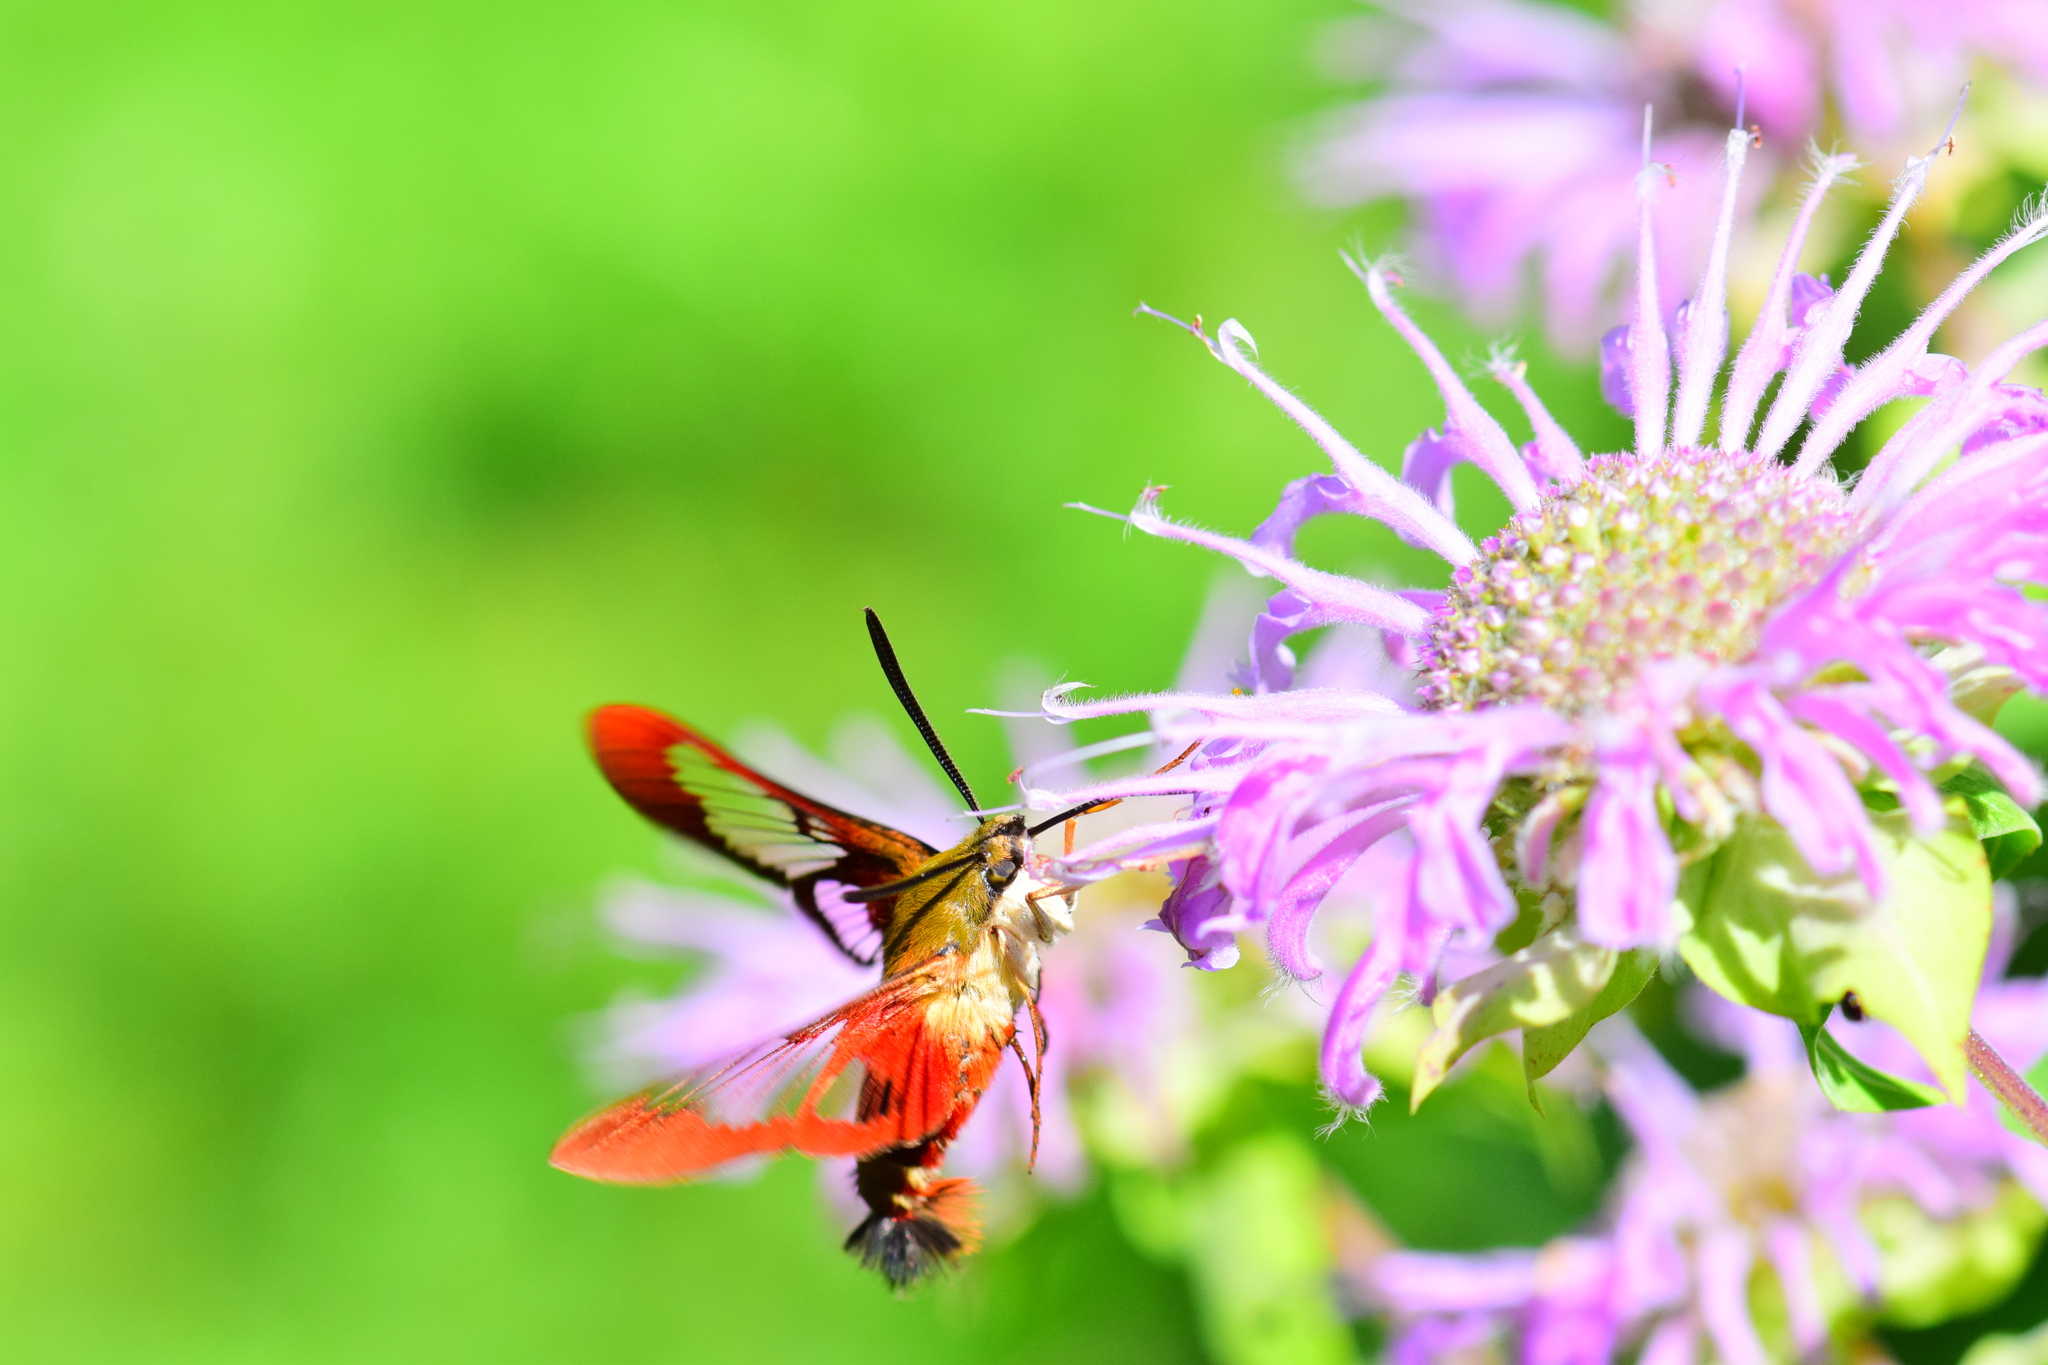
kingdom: Animalia
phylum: Arthropoda
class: Insecta
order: Lepidoptera
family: Sphingidae
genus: Hemaris
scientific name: Hemaris thysbe
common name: Common clear-wing
